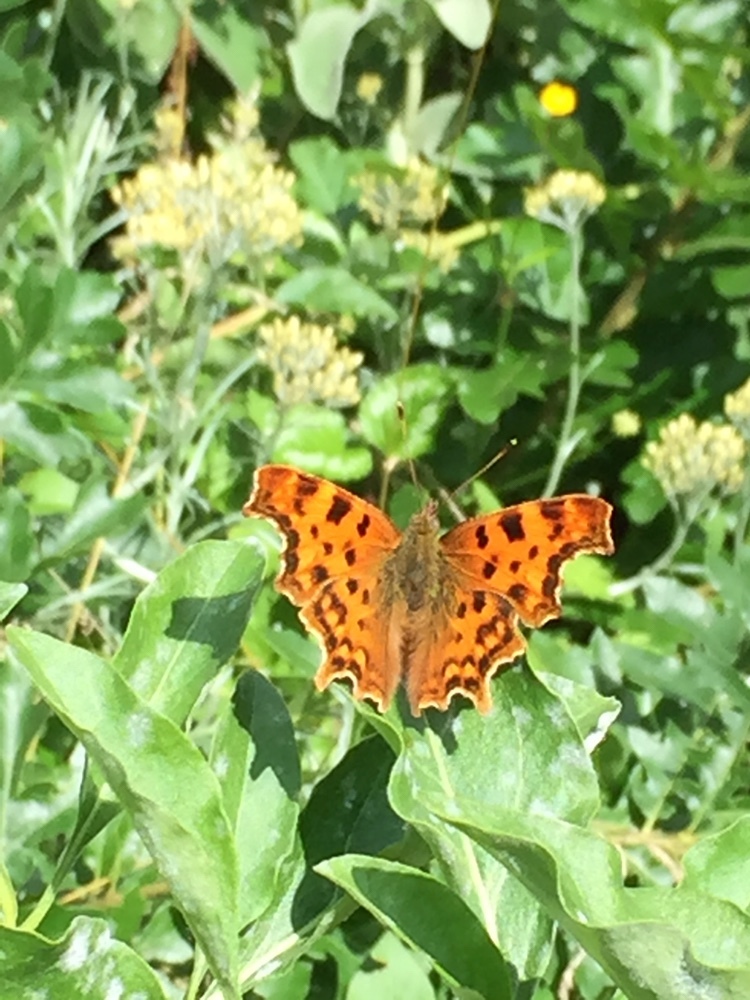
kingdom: Animalia
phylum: Arthropoda
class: Insecta
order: Lepidoptera
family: Nymphalidae
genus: Polygonia
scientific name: Polygonia c-album
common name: Comma
